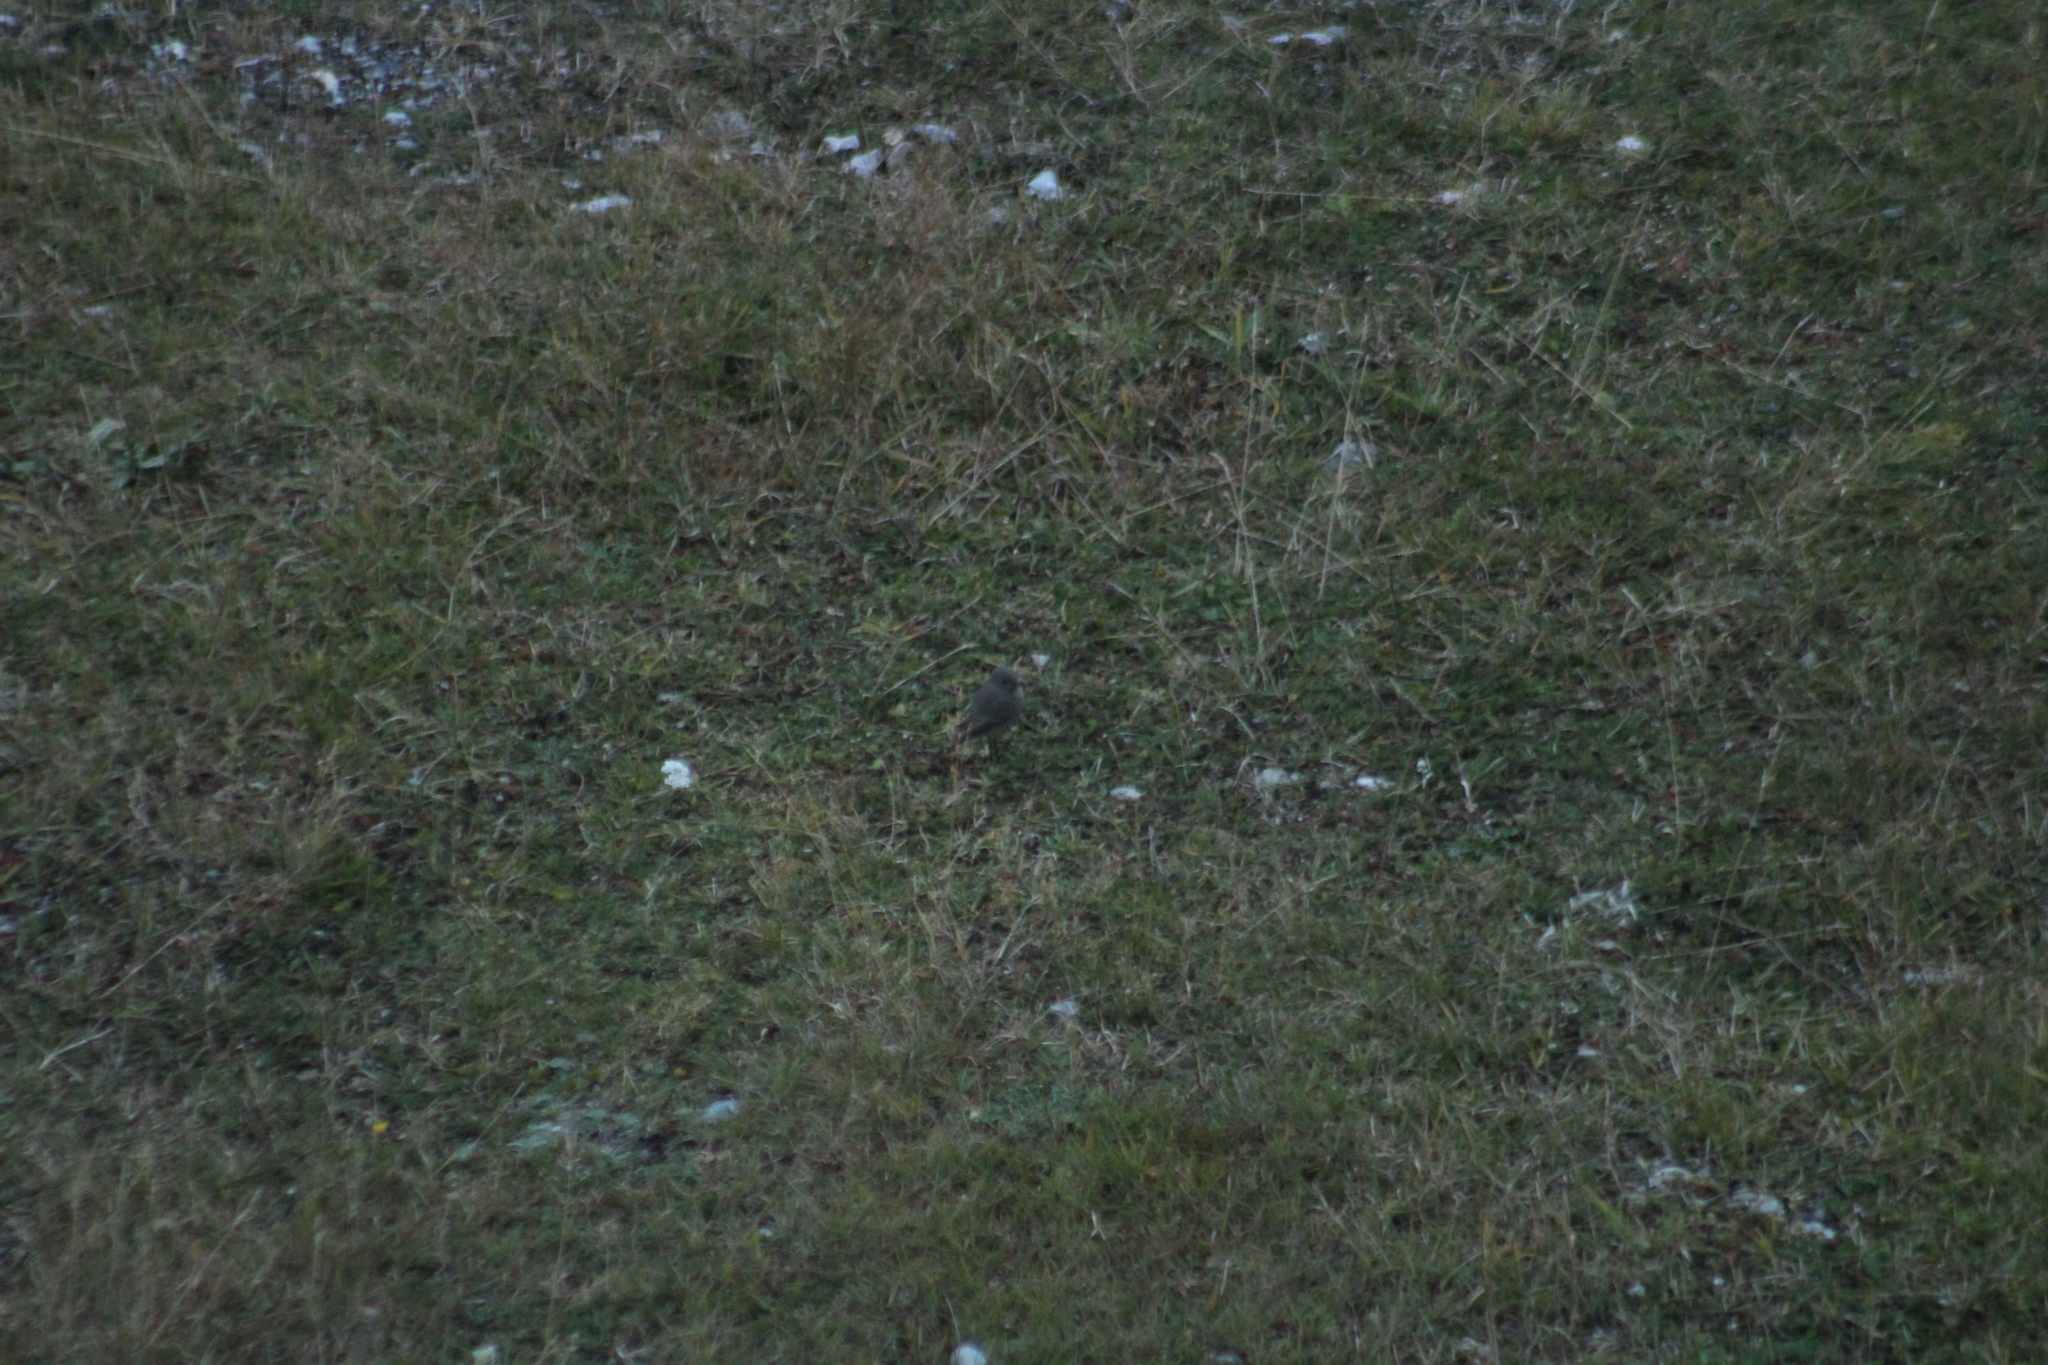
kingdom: Animalia
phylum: Chordata
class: Aves
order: Passeriformes
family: Muscicapidae
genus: Phoenicurus
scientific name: Phoenicurus ochruros
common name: Black redstart
